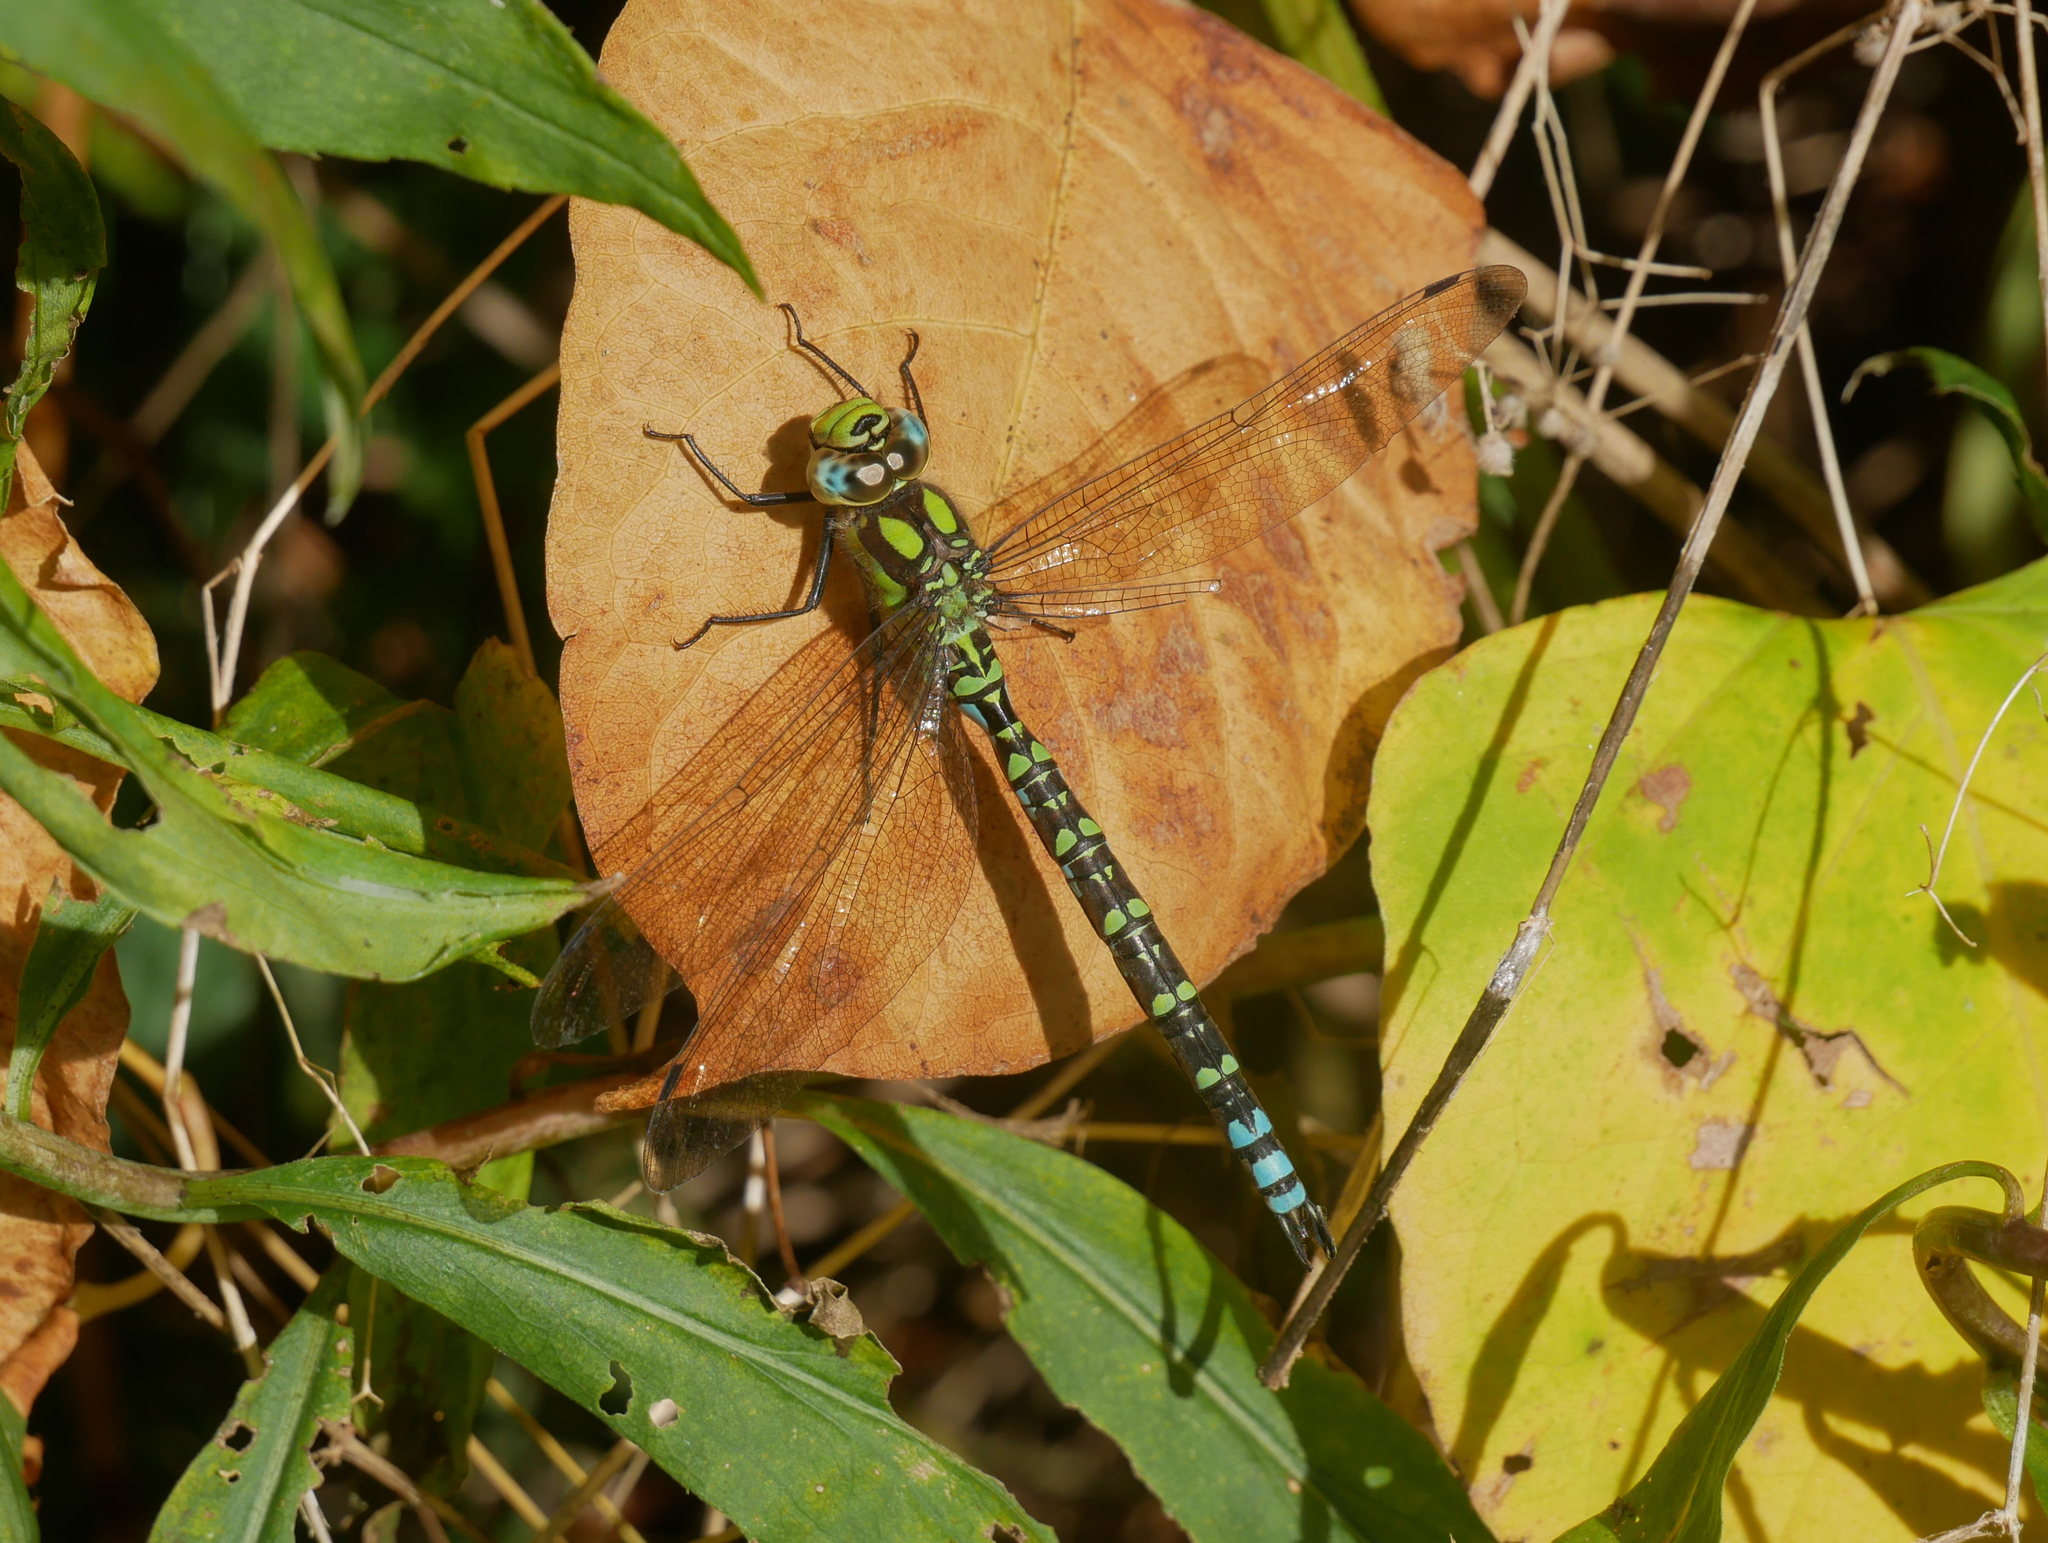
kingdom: Animalia
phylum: Arthropoda
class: Insecta
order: Odonata
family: Aeshnidae
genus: Aeshna
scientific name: Aeshna cyanea
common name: Southern hawker
